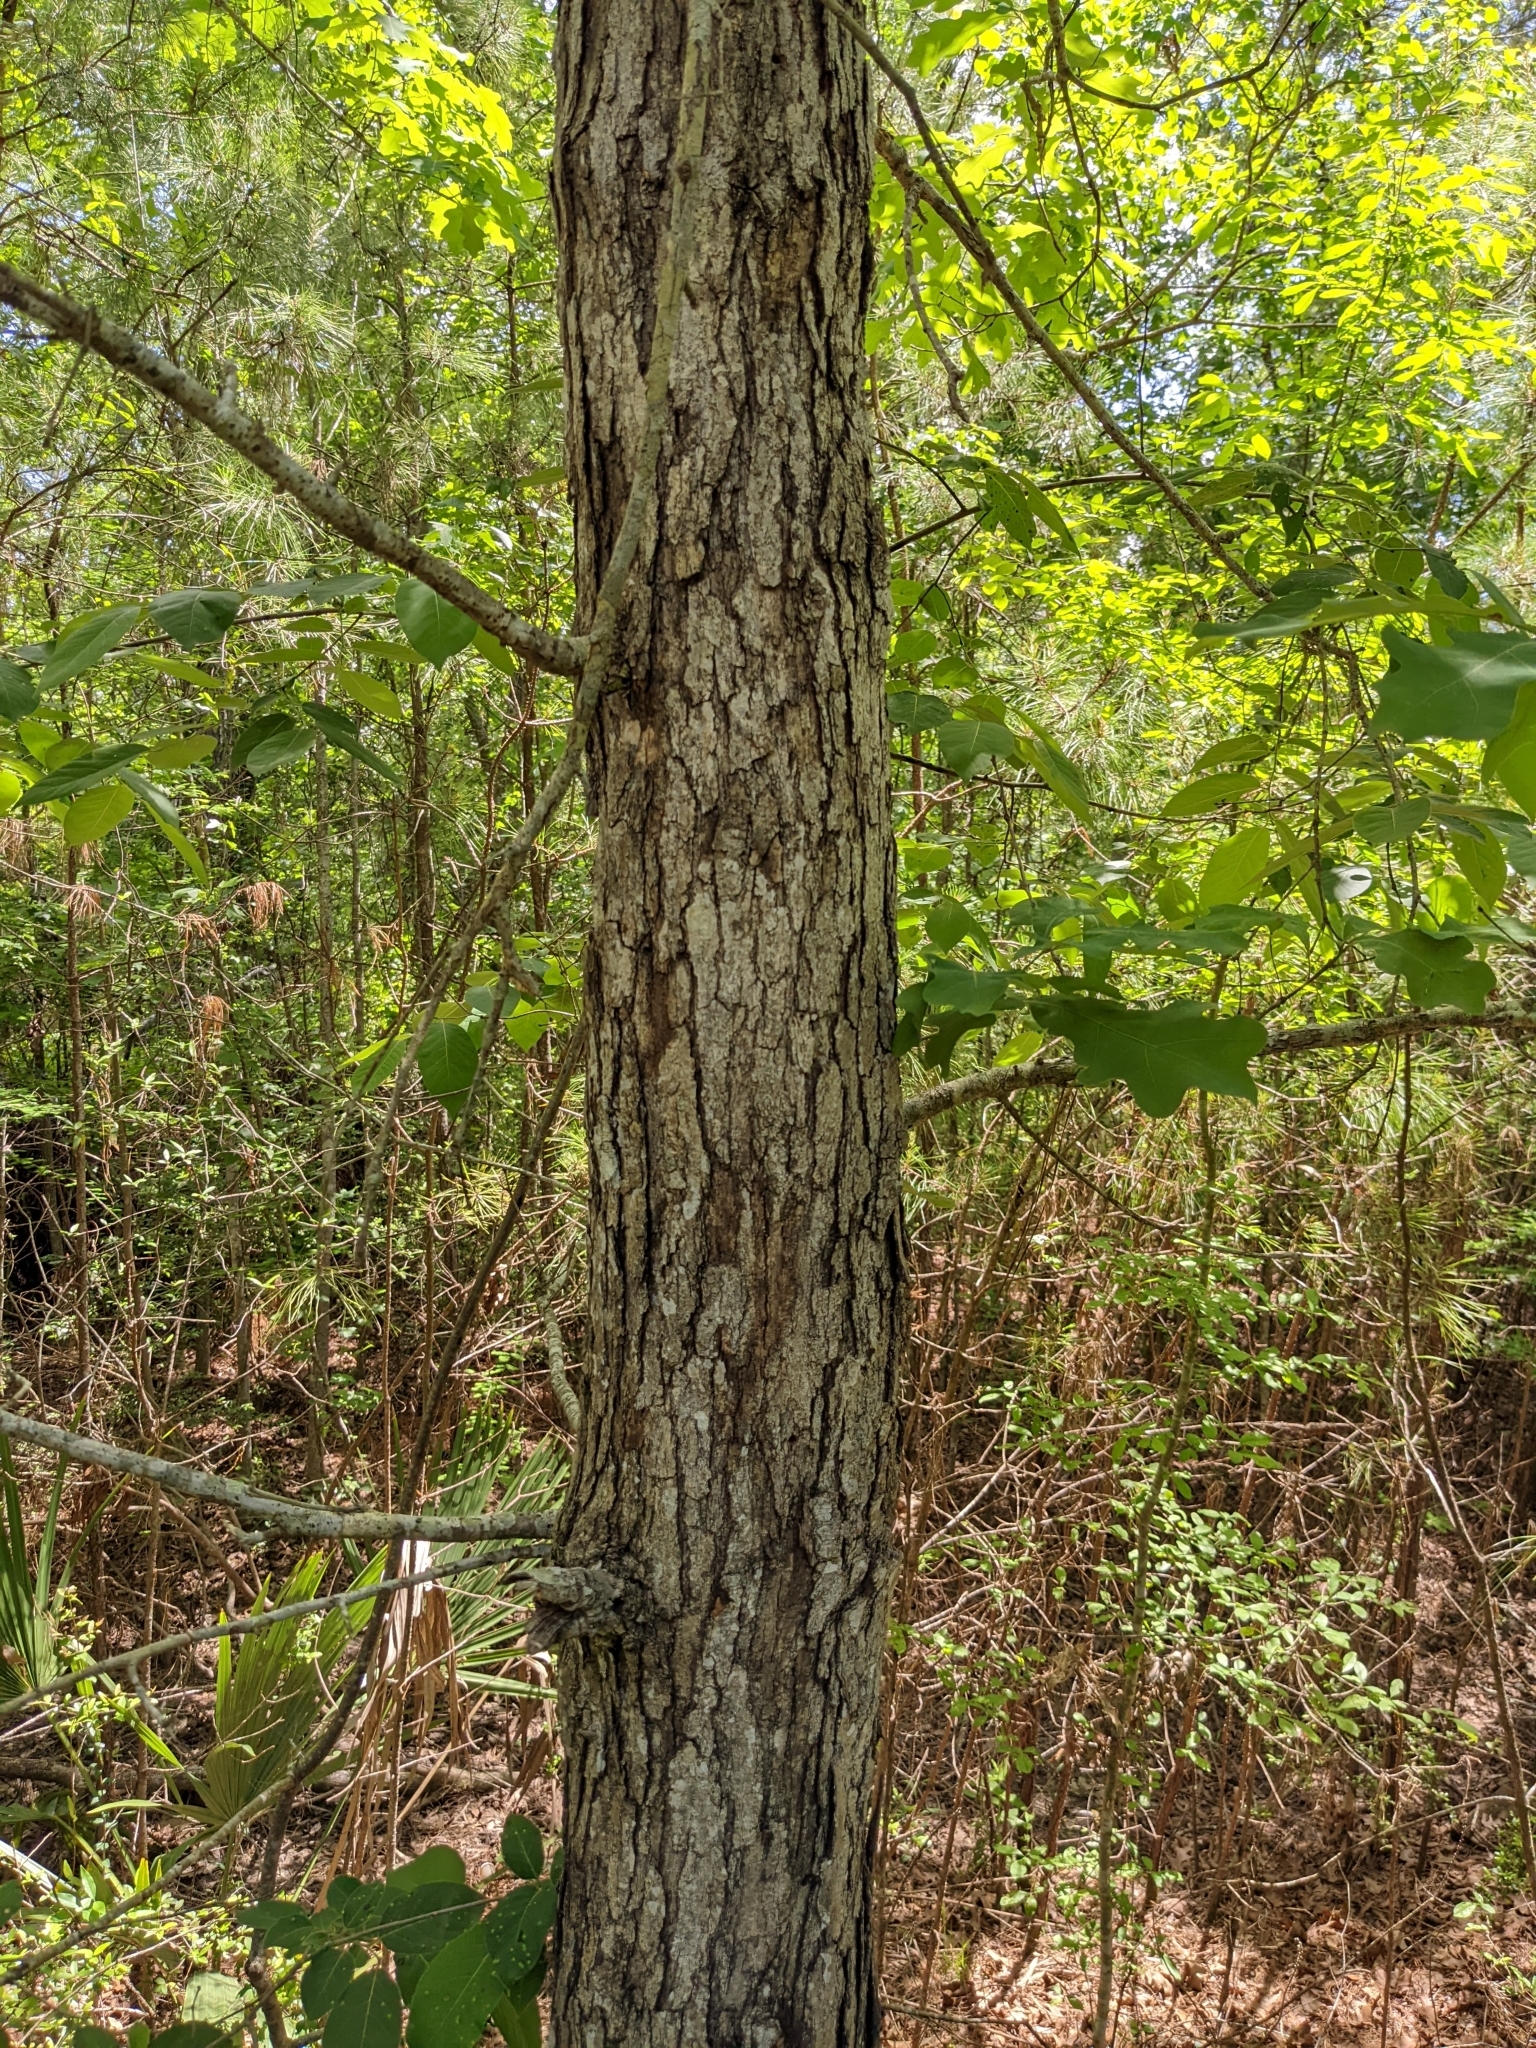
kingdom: Plantae
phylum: Tracheophyta
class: Magnoliopsida
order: Fagales
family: Fagaceae
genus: Quercus
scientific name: Quercus alba
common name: White oak
